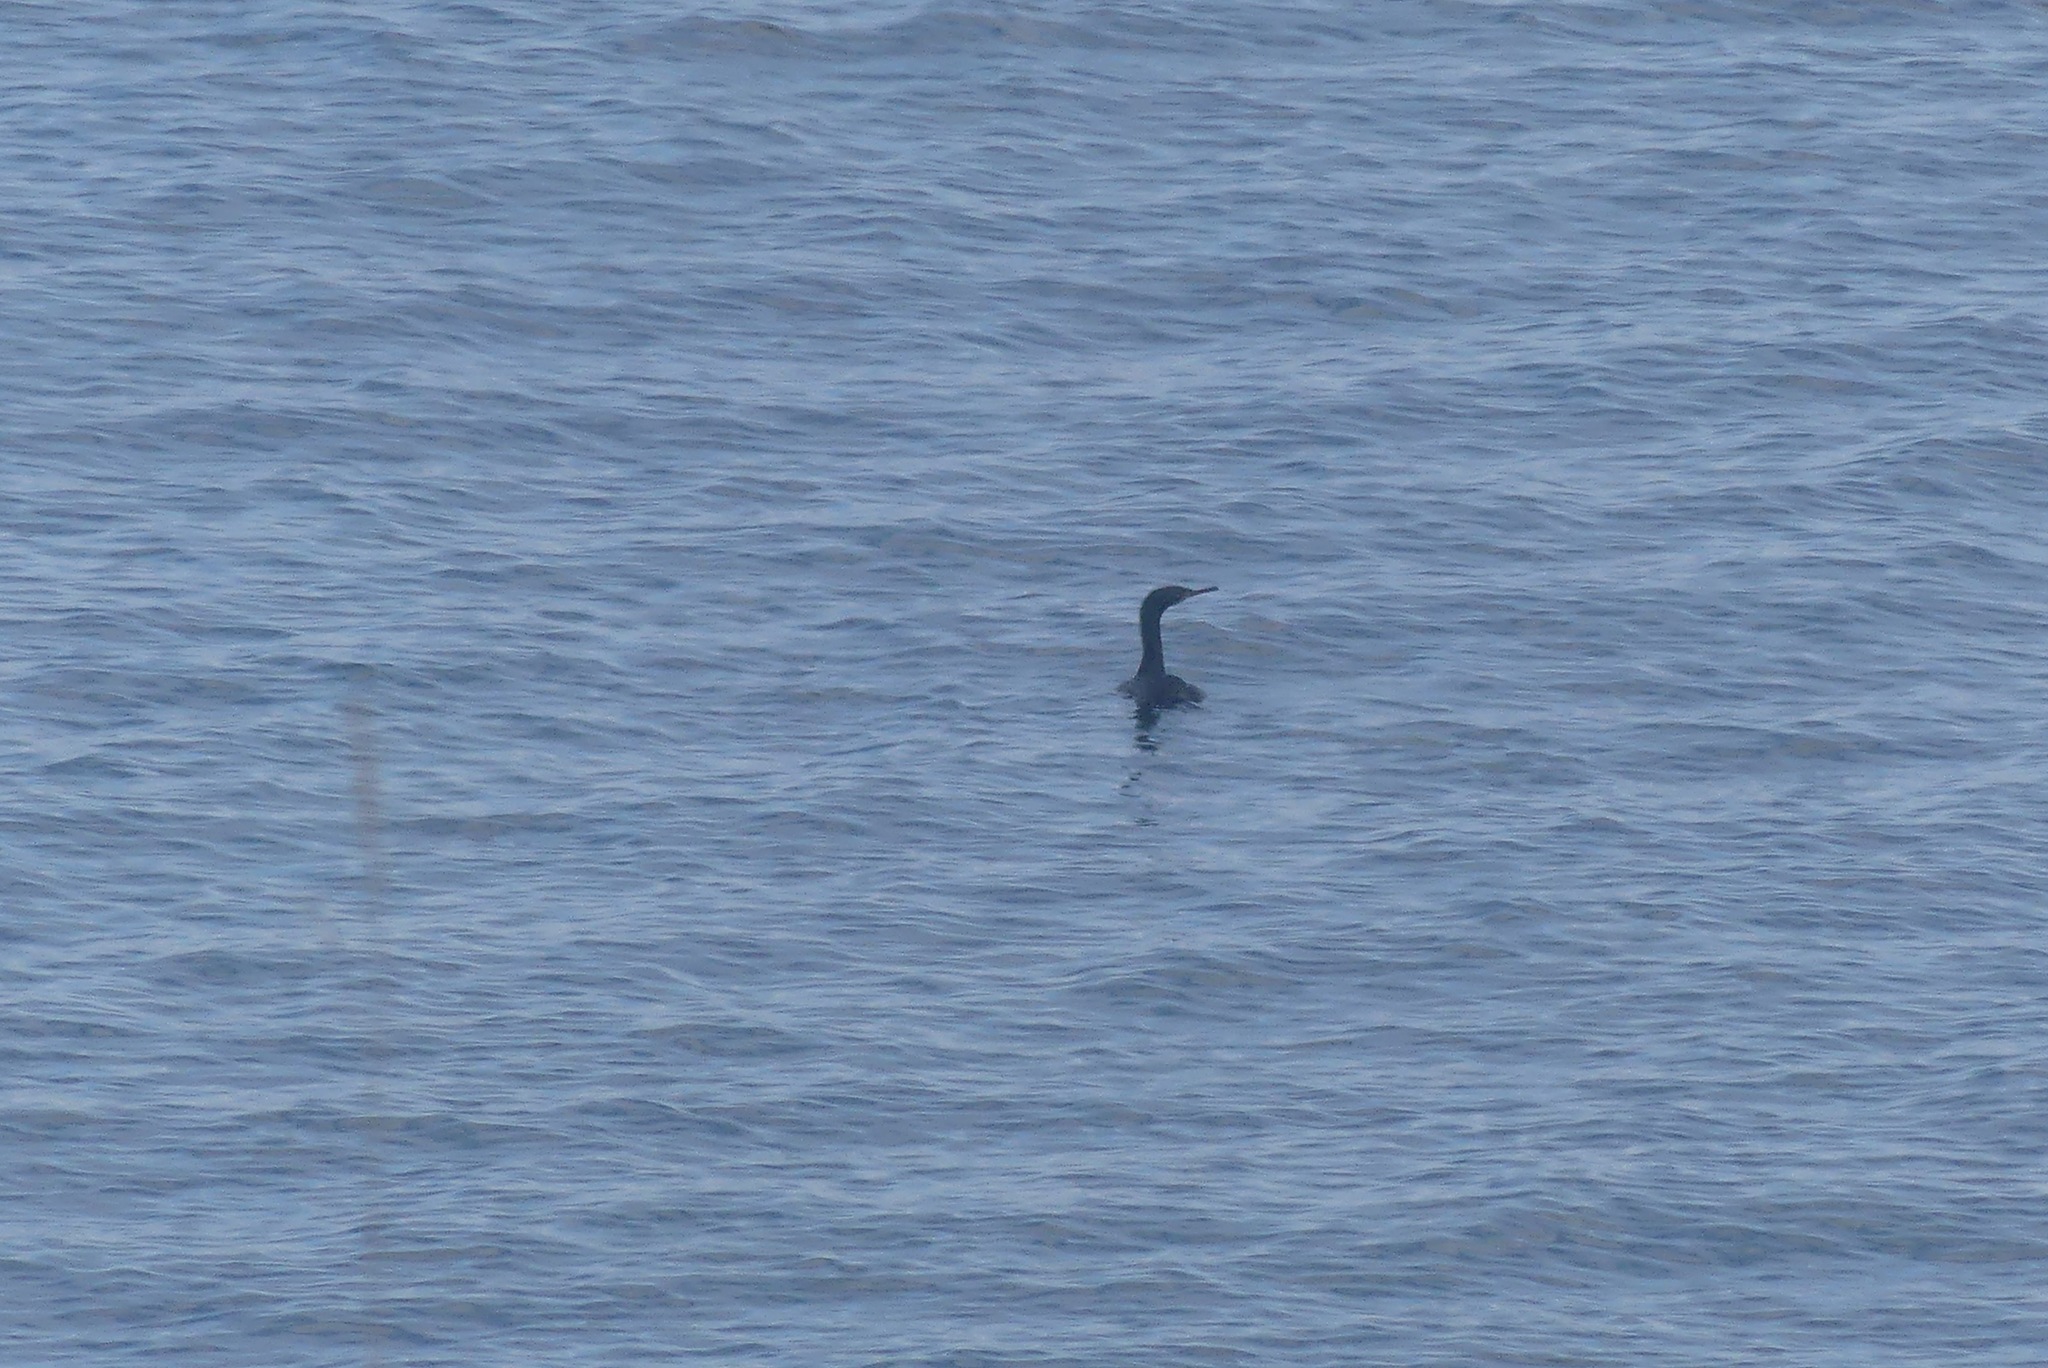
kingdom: Animalia
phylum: Chordata
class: Aves
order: Suliformes
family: Phalacrocoracidae
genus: Phalacrocorax
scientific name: Phalacrocorax pelagicus
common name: Pelagic cormorant
